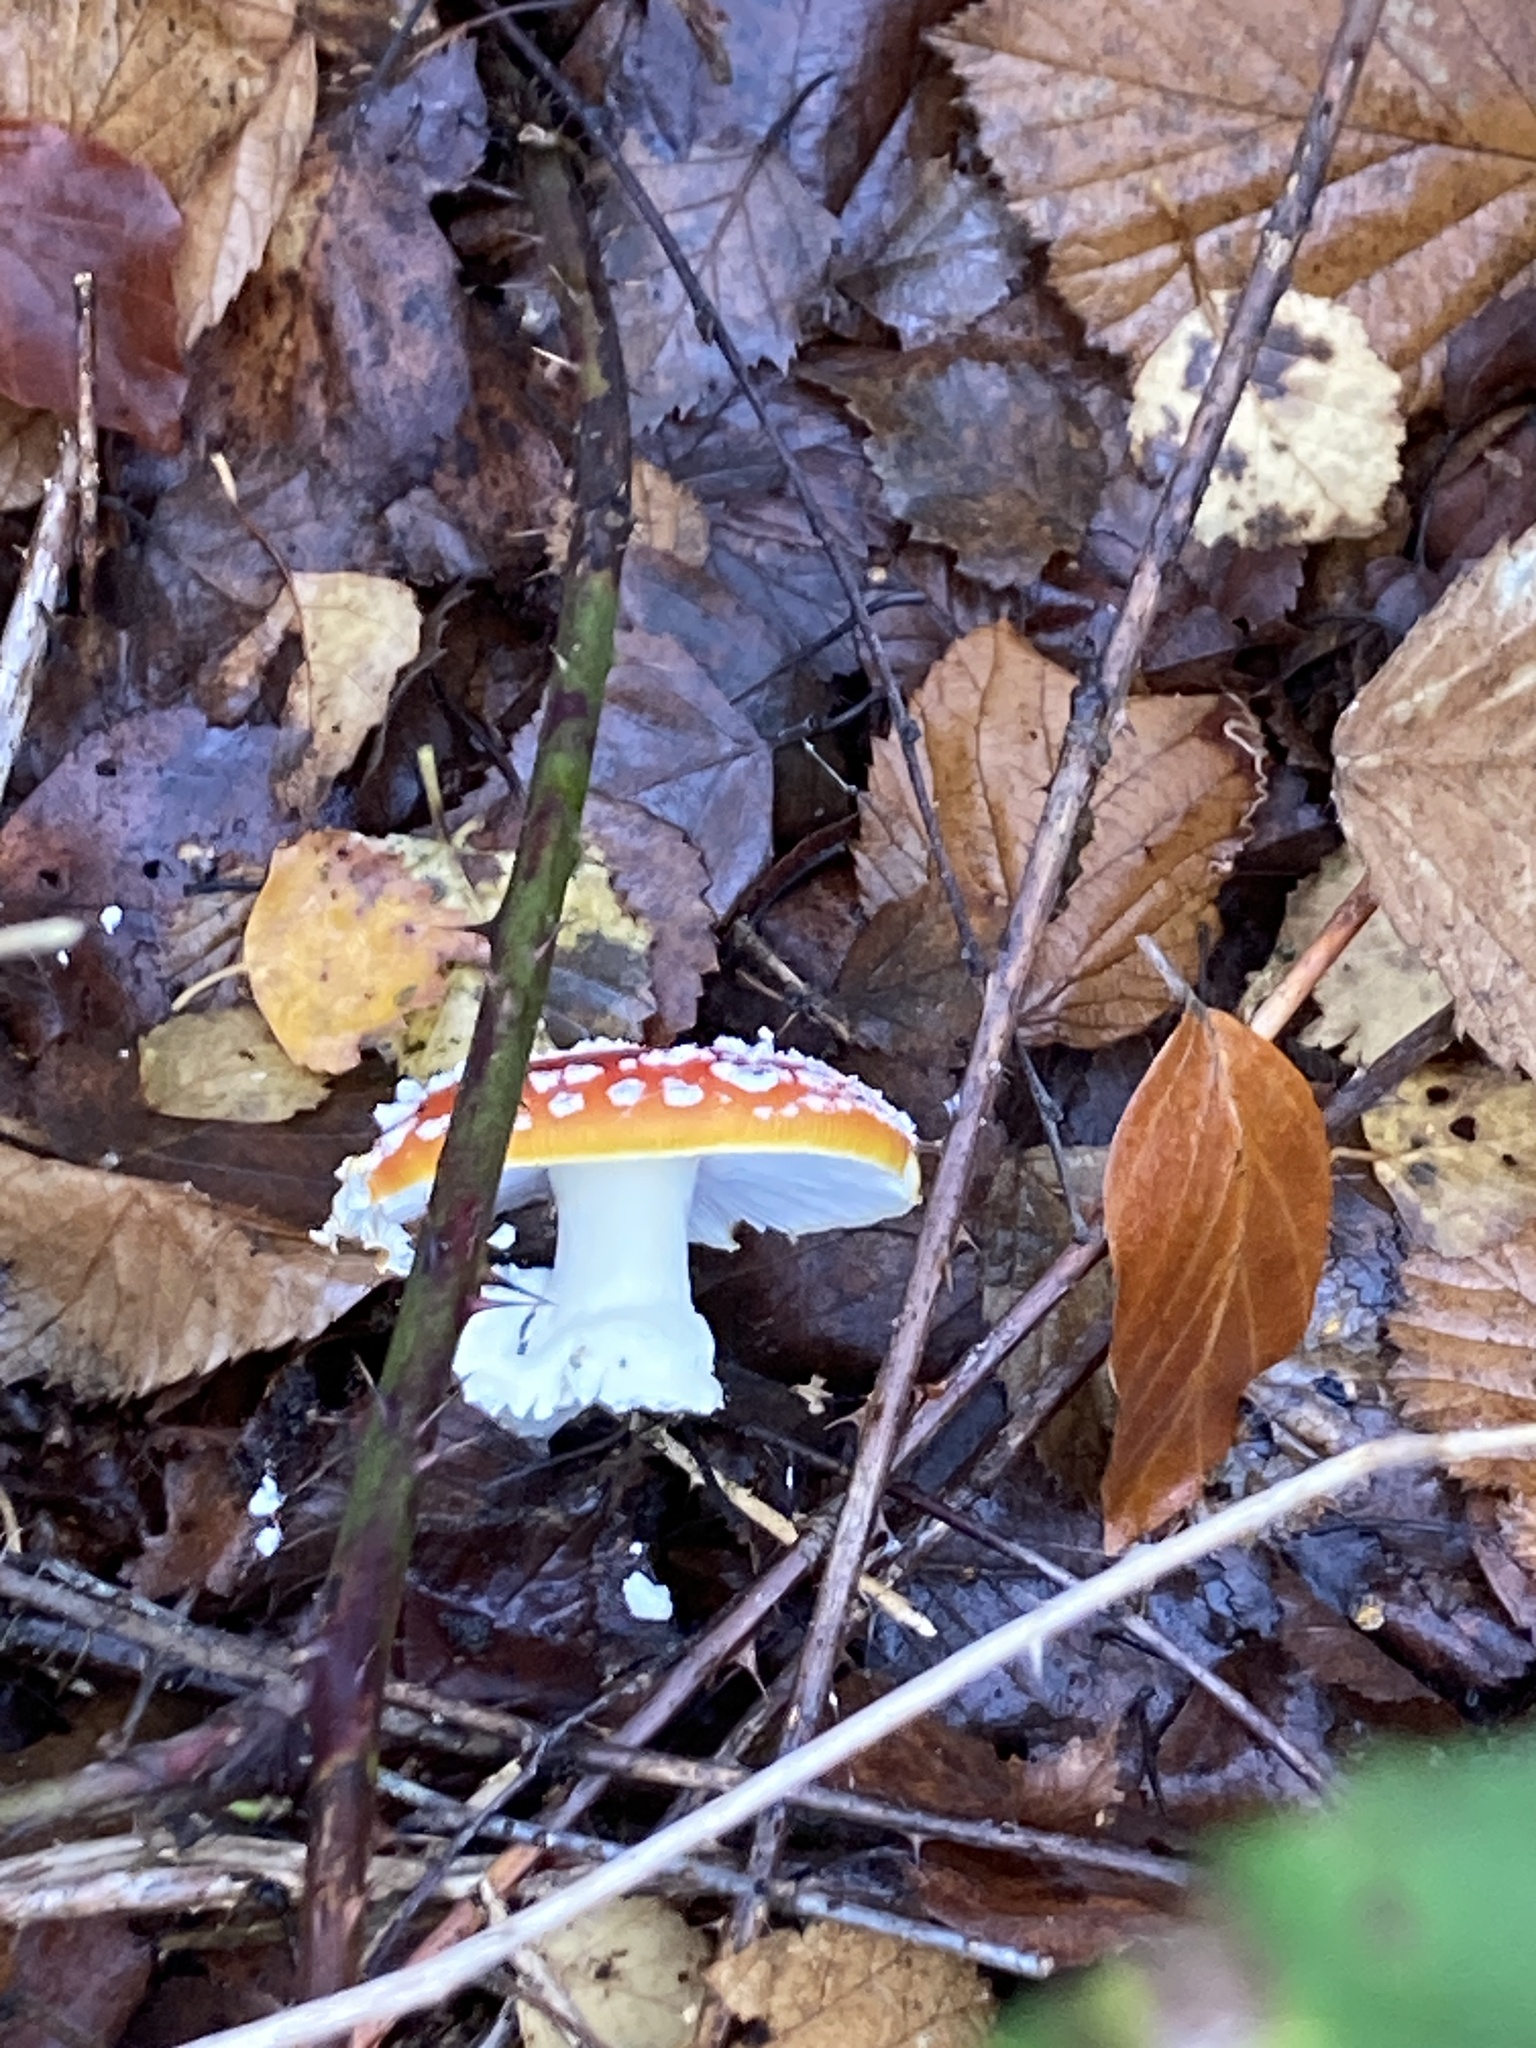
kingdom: Fungi
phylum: Basidiomycota
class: Agaricomycetes
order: Agaricales
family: Amanitaceae
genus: Amanita
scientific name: Amanita muscaria
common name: Fly agaric
